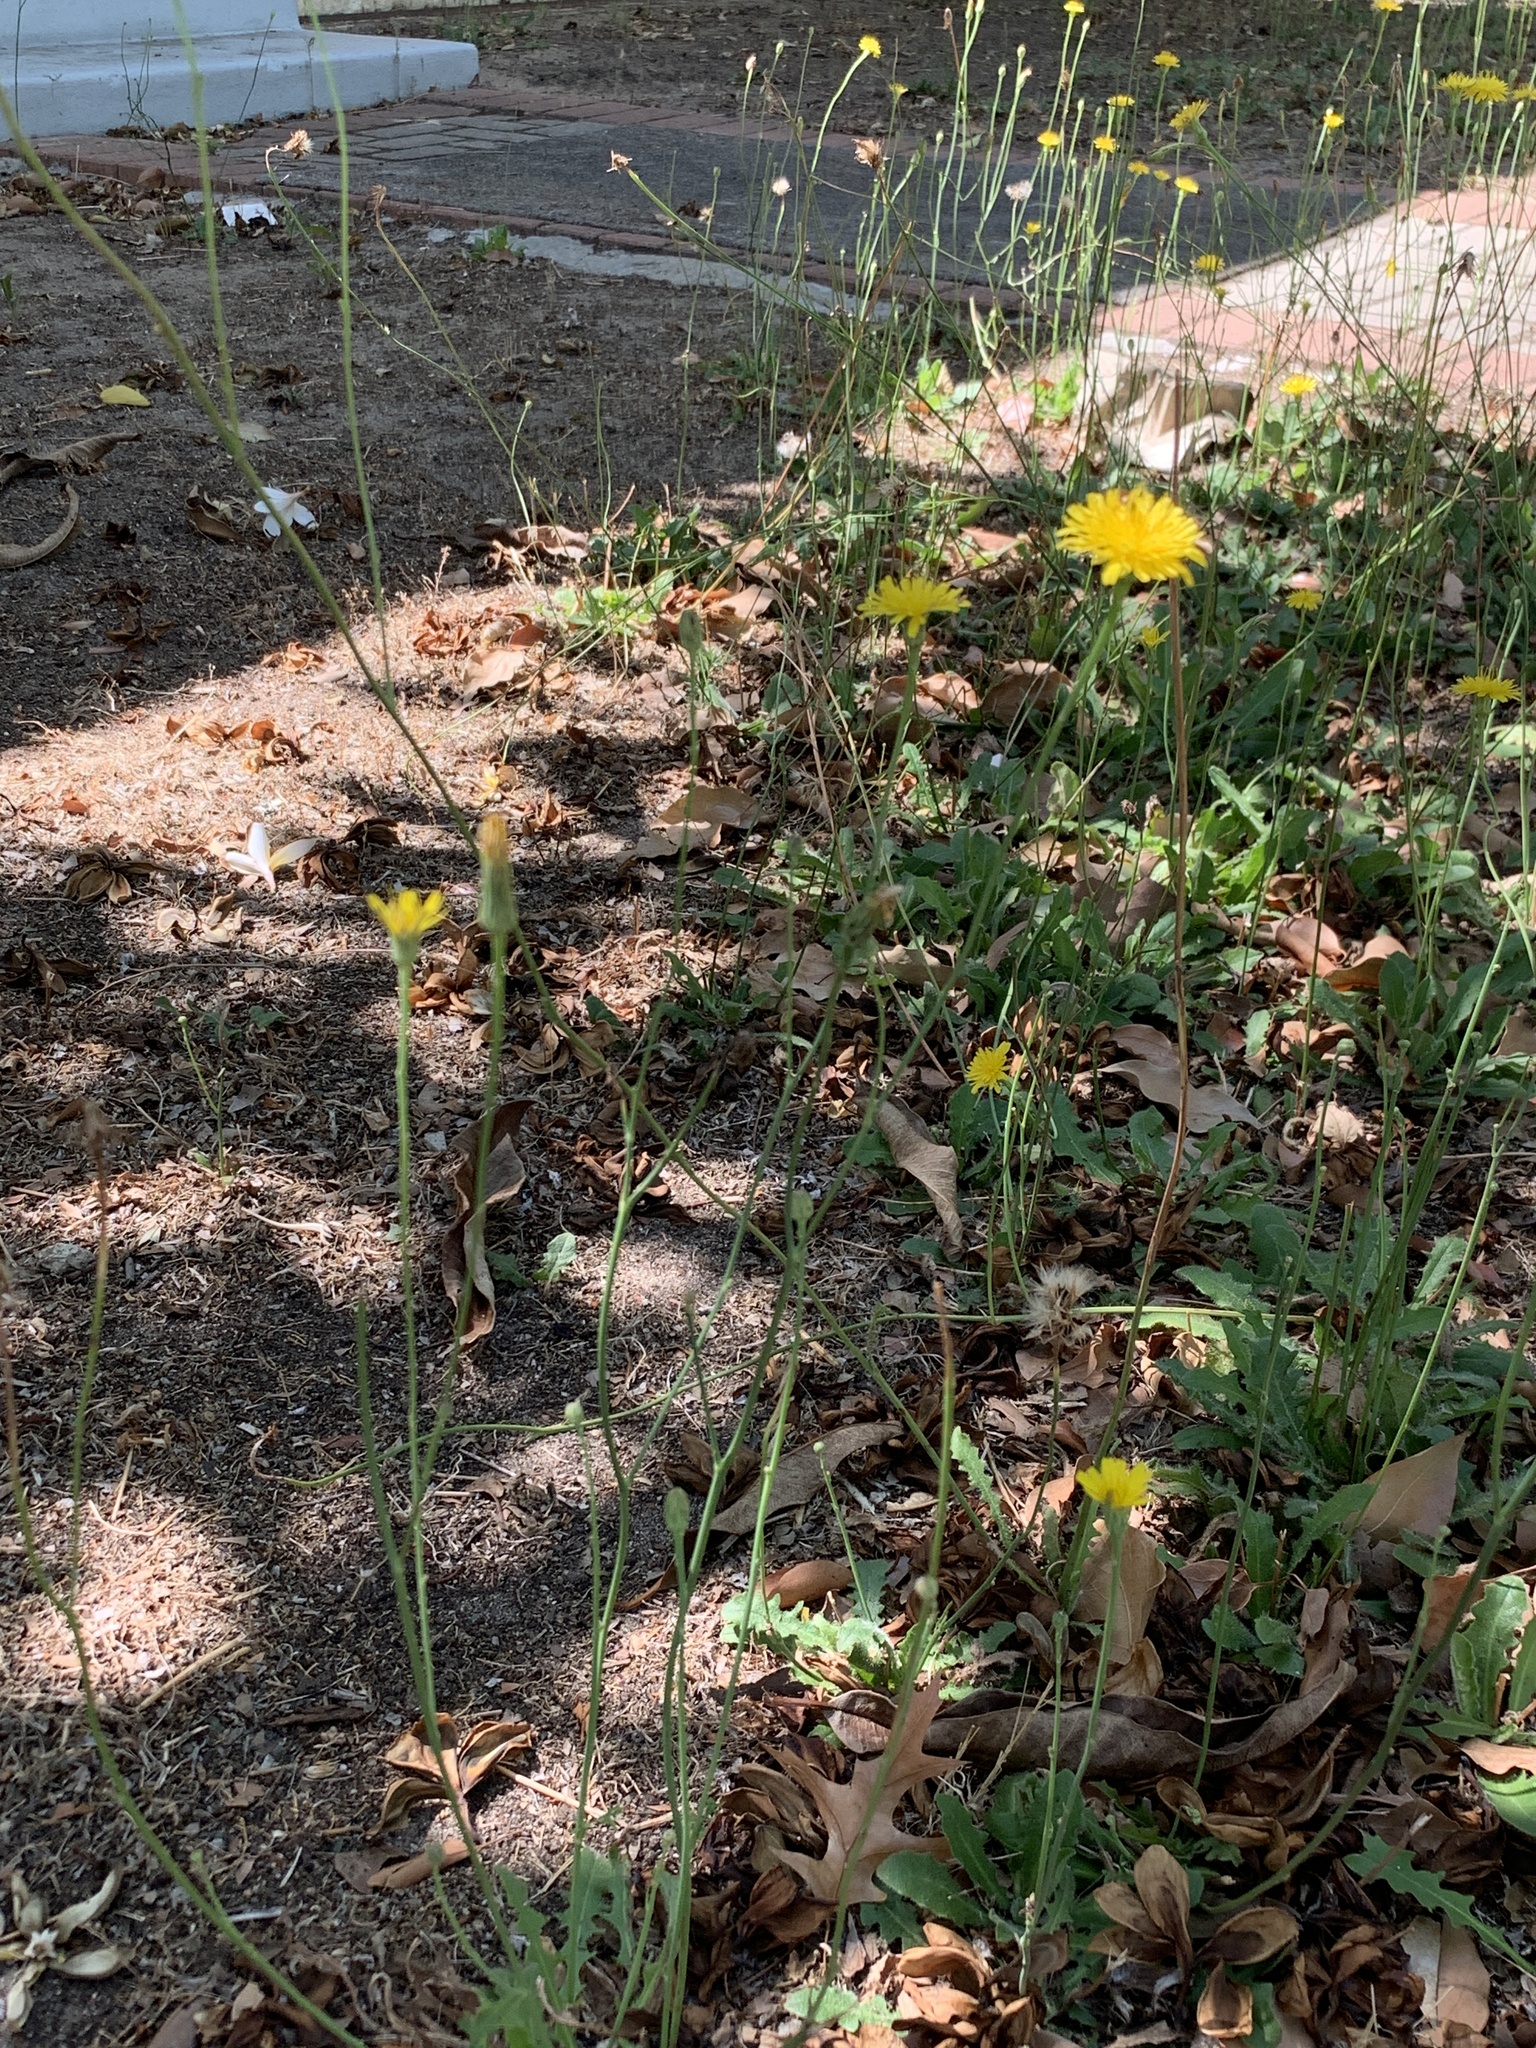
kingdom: Plantae
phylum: Tracheophyta
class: Magnoliopsida
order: Asterales
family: Asteraceae
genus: Hypochaeris
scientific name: Hypochaeris radicata
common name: Flatweed
